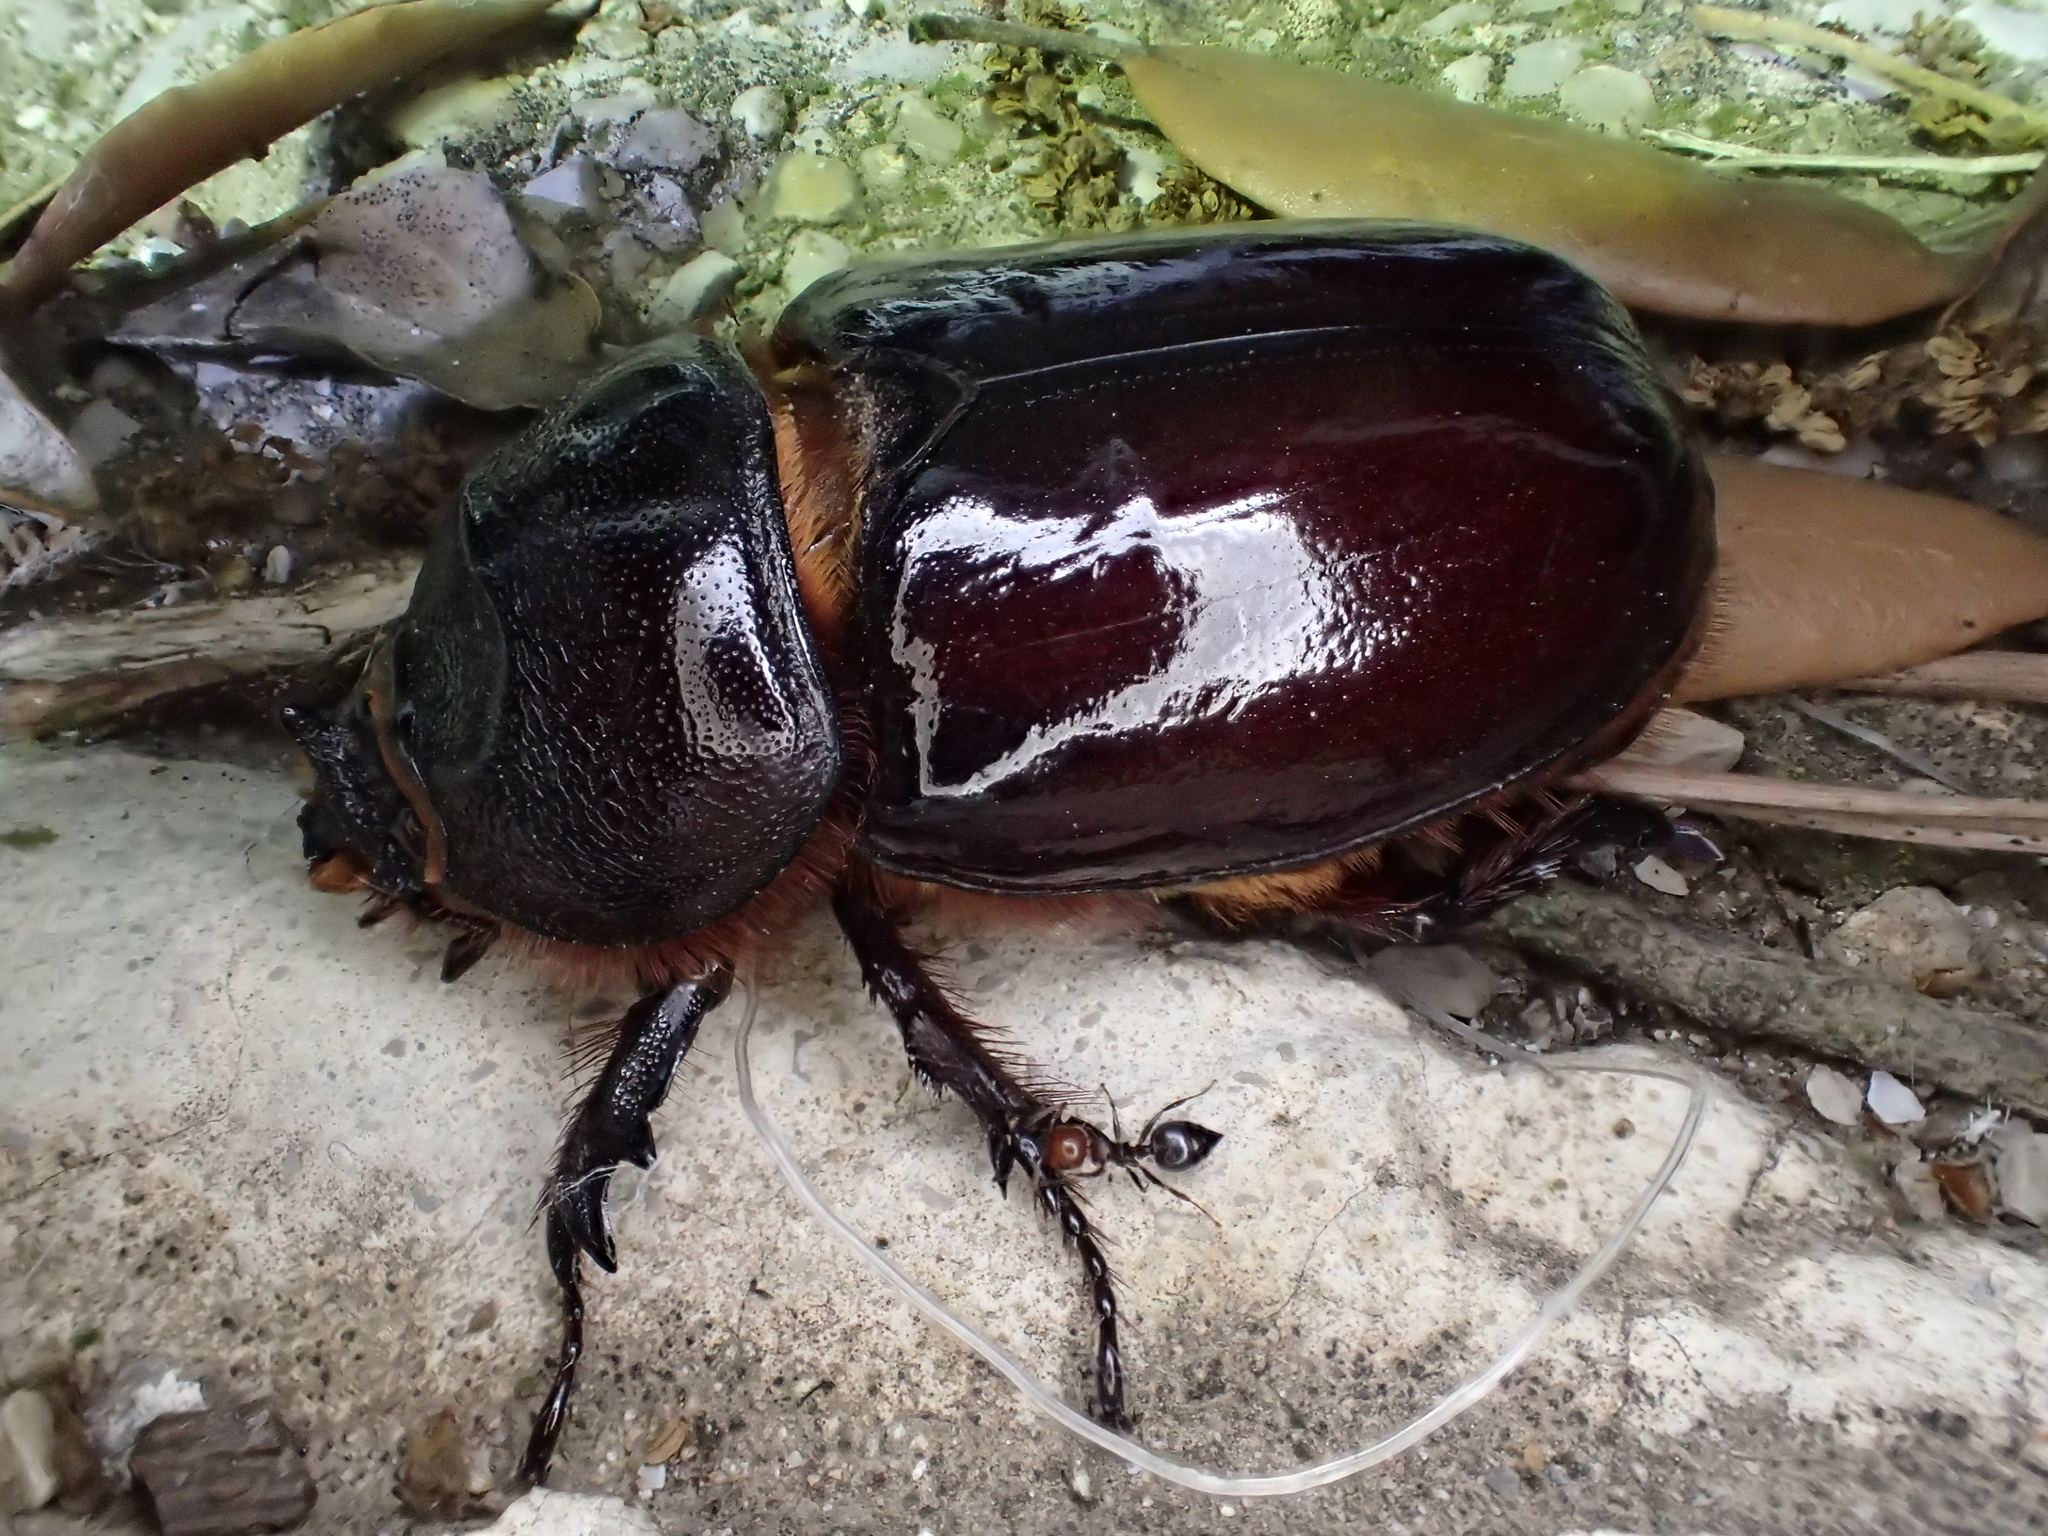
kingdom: Animalia
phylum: Arthropoda
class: Insecta
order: Coleoptera
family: Scarabaeidae
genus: Oryctes
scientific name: Oryctes nasicornis
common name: European rhinoceros beetle
